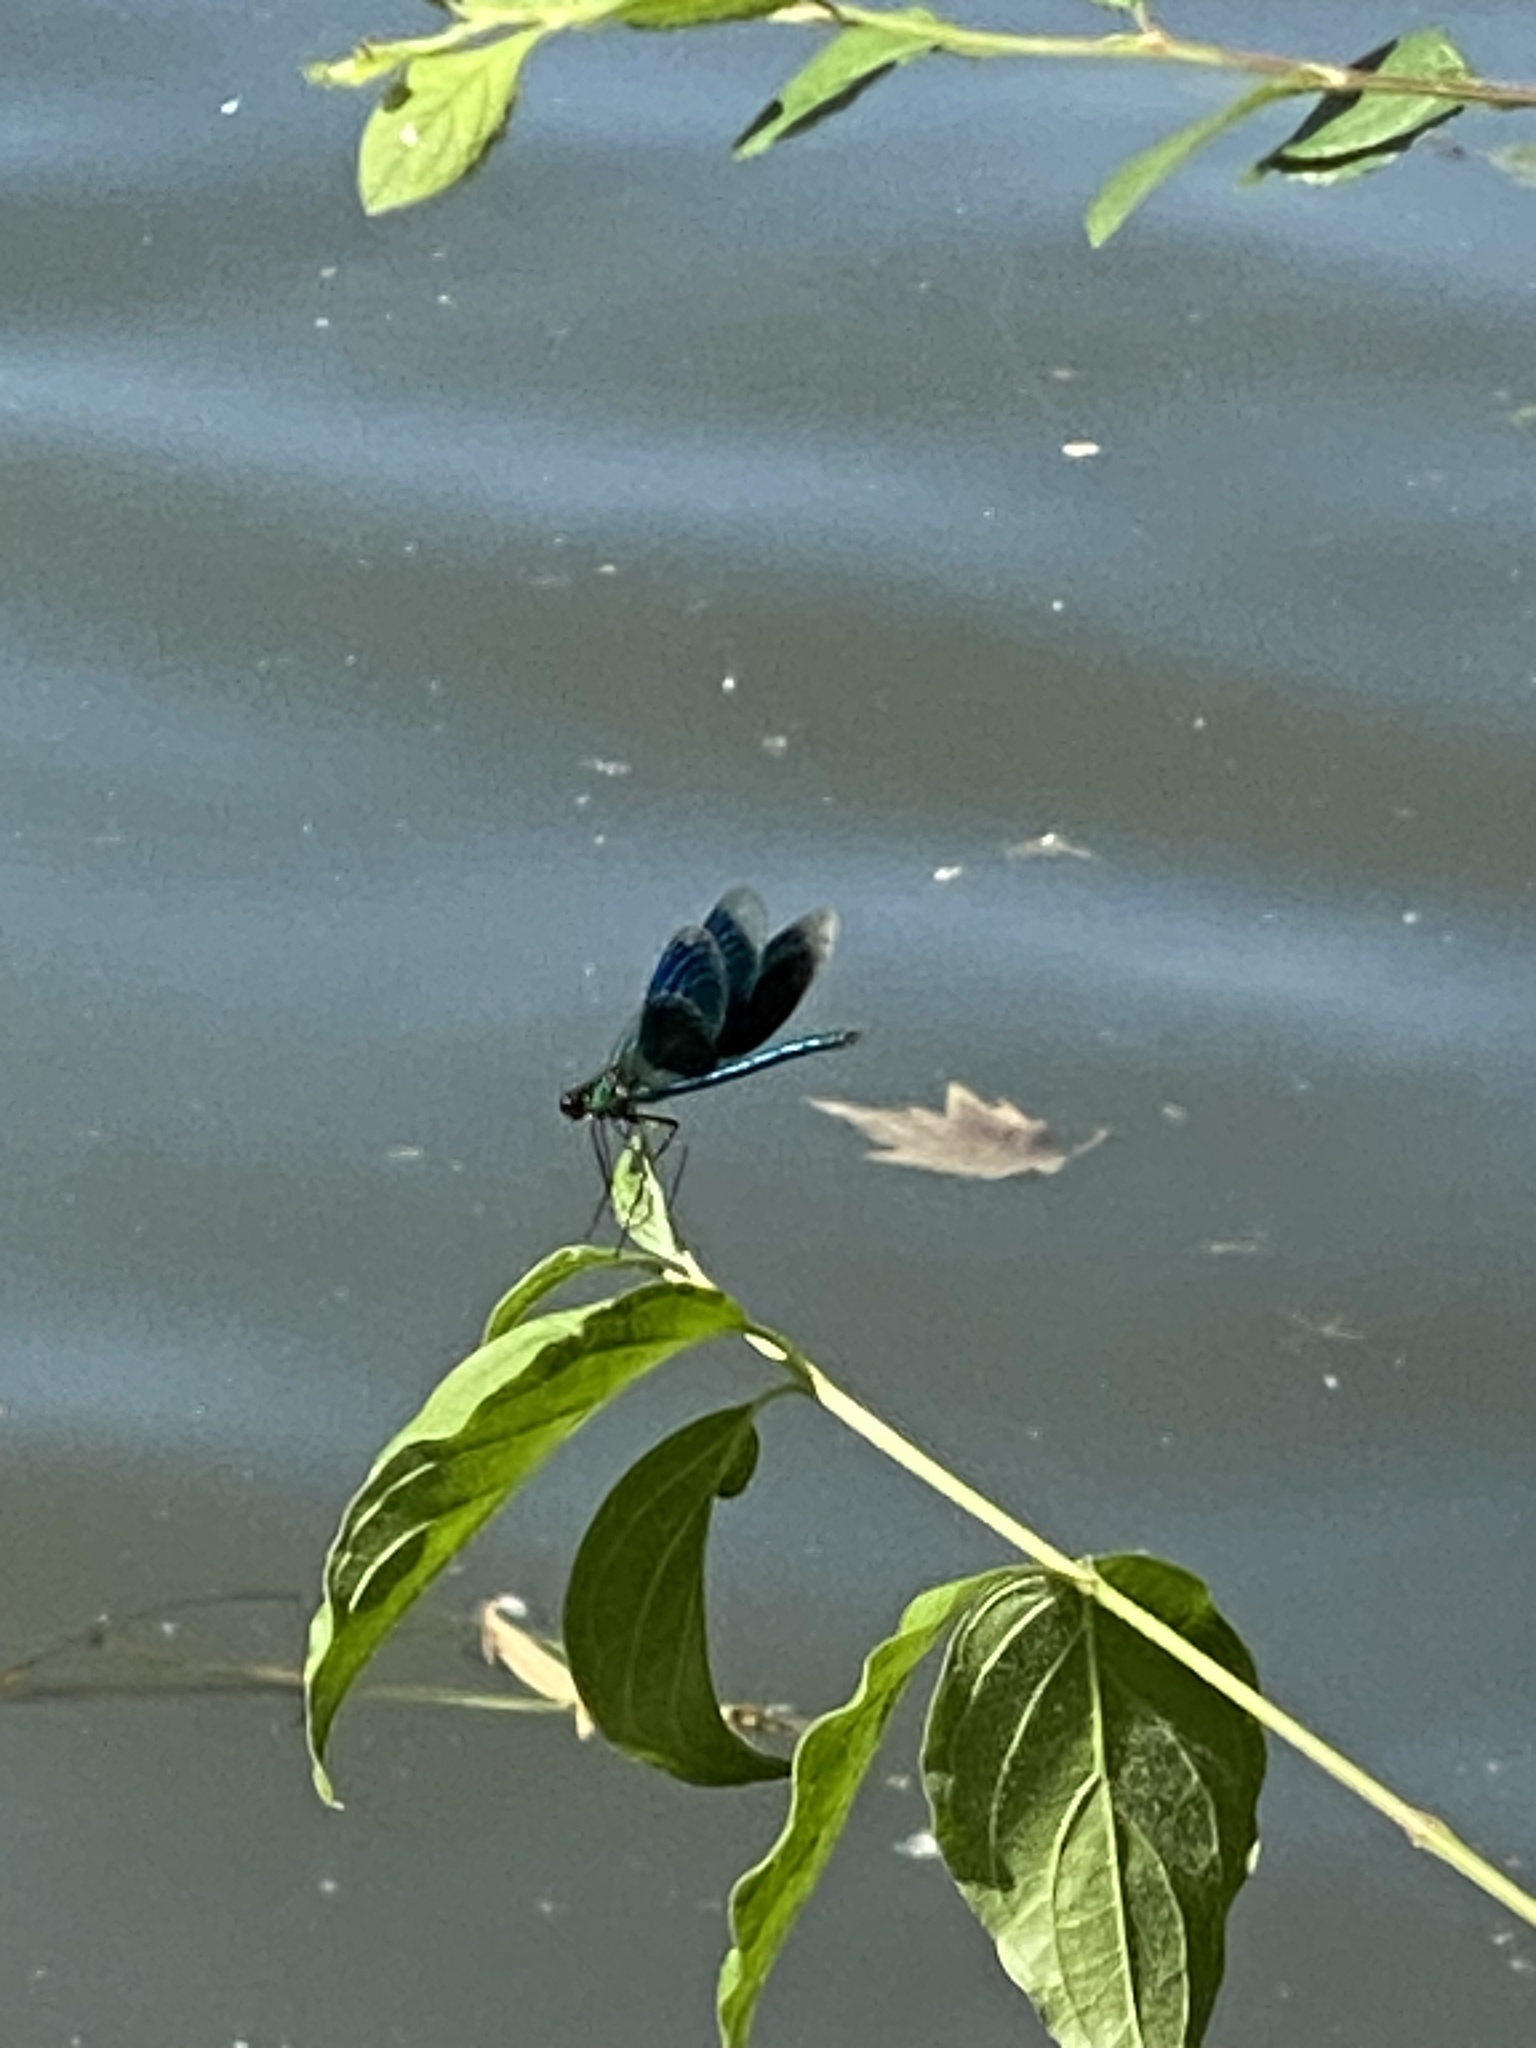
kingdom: Animalia
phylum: Arthropoda
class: Insecta
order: Odonata
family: Calopterygidae
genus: Calopteryx
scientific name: Calopteryx splendens
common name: Banded demoiselle
